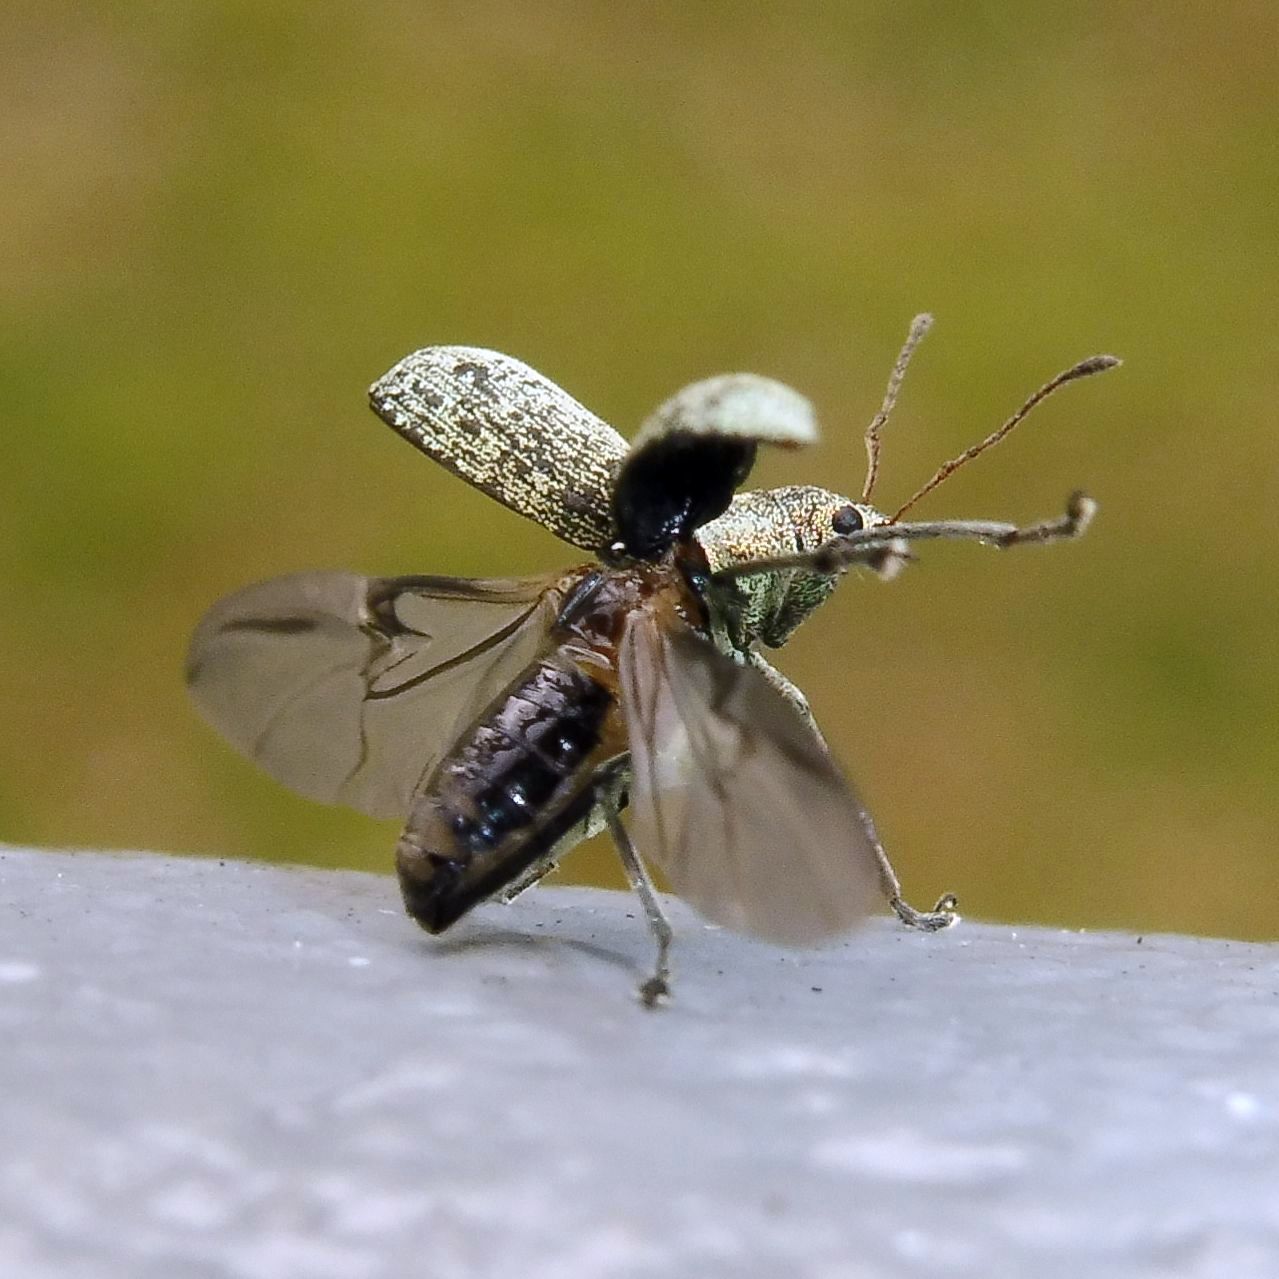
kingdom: Animalia
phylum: Arthropoda
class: Insecta
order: Coleoptera
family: Curculionidae
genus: Polydrusus
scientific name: Polydrusus cervinus
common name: Weevil
